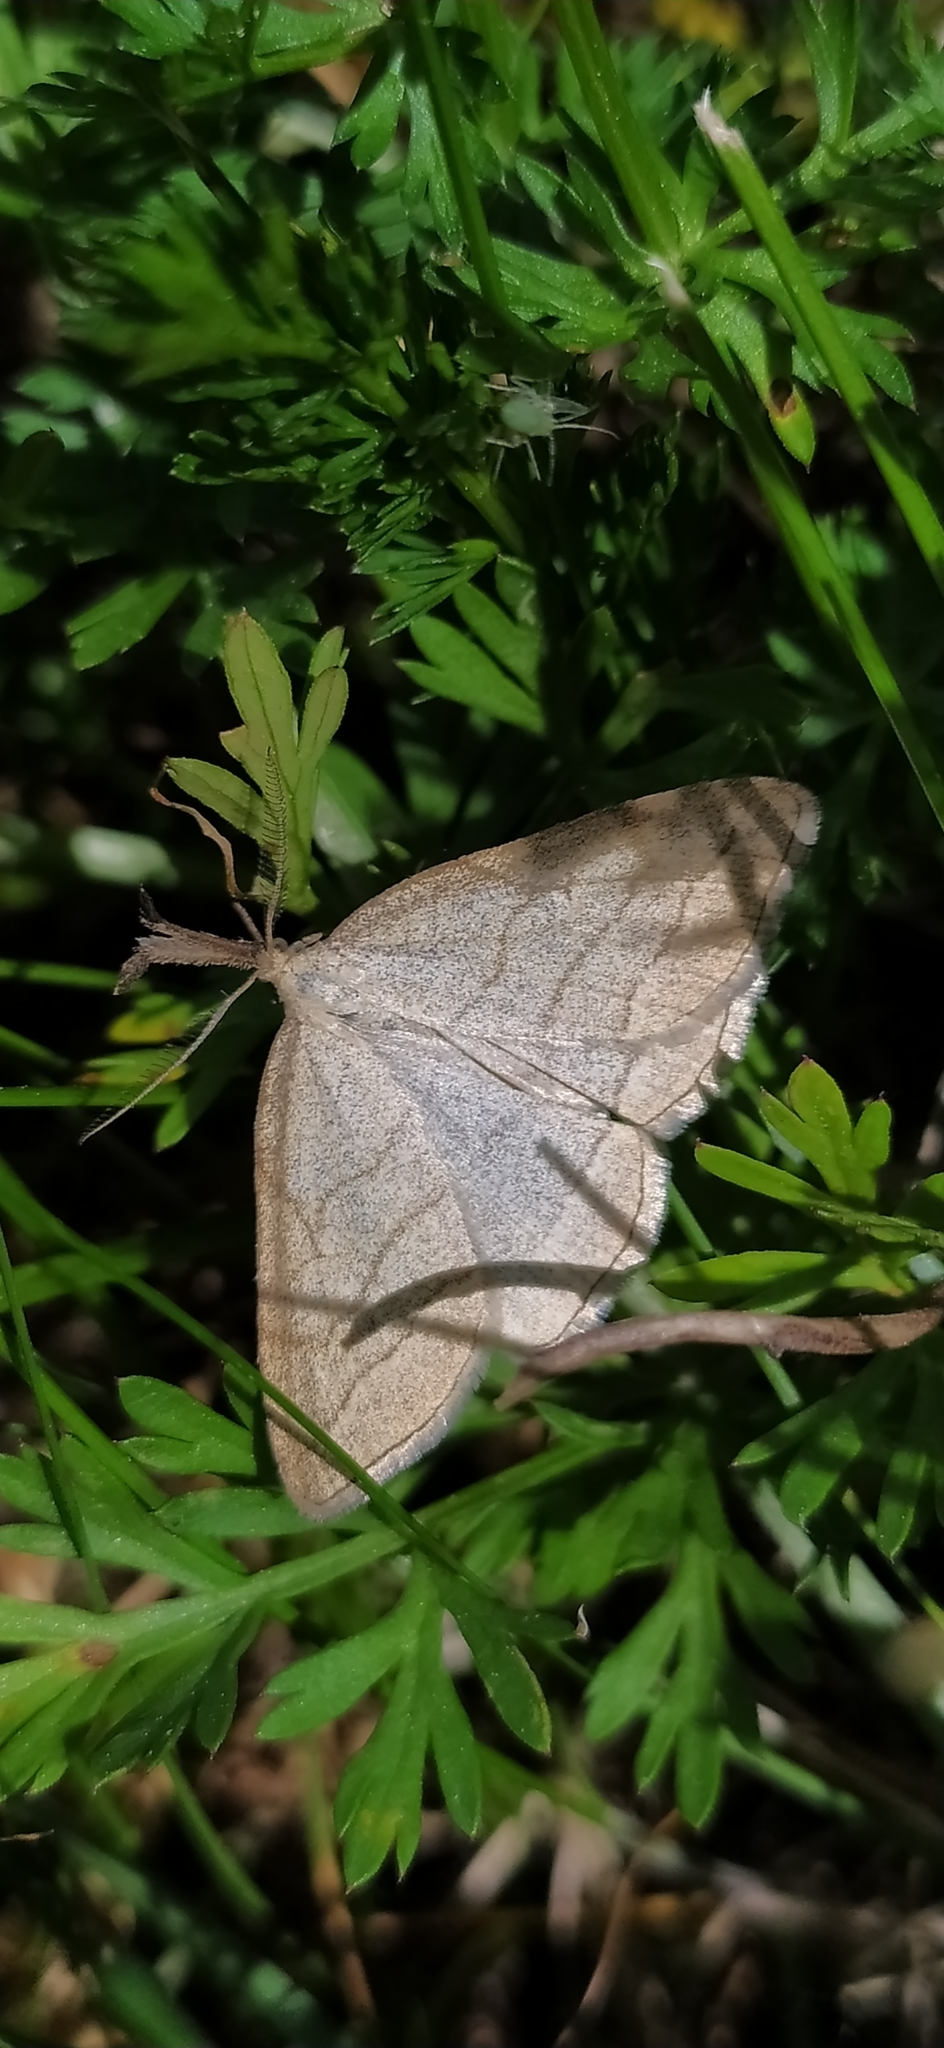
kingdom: Animalia
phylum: Arthropoda
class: Insecta
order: Lepidoptera
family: Erebidae
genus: Polypogon
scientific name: Polypogon tentacularia
